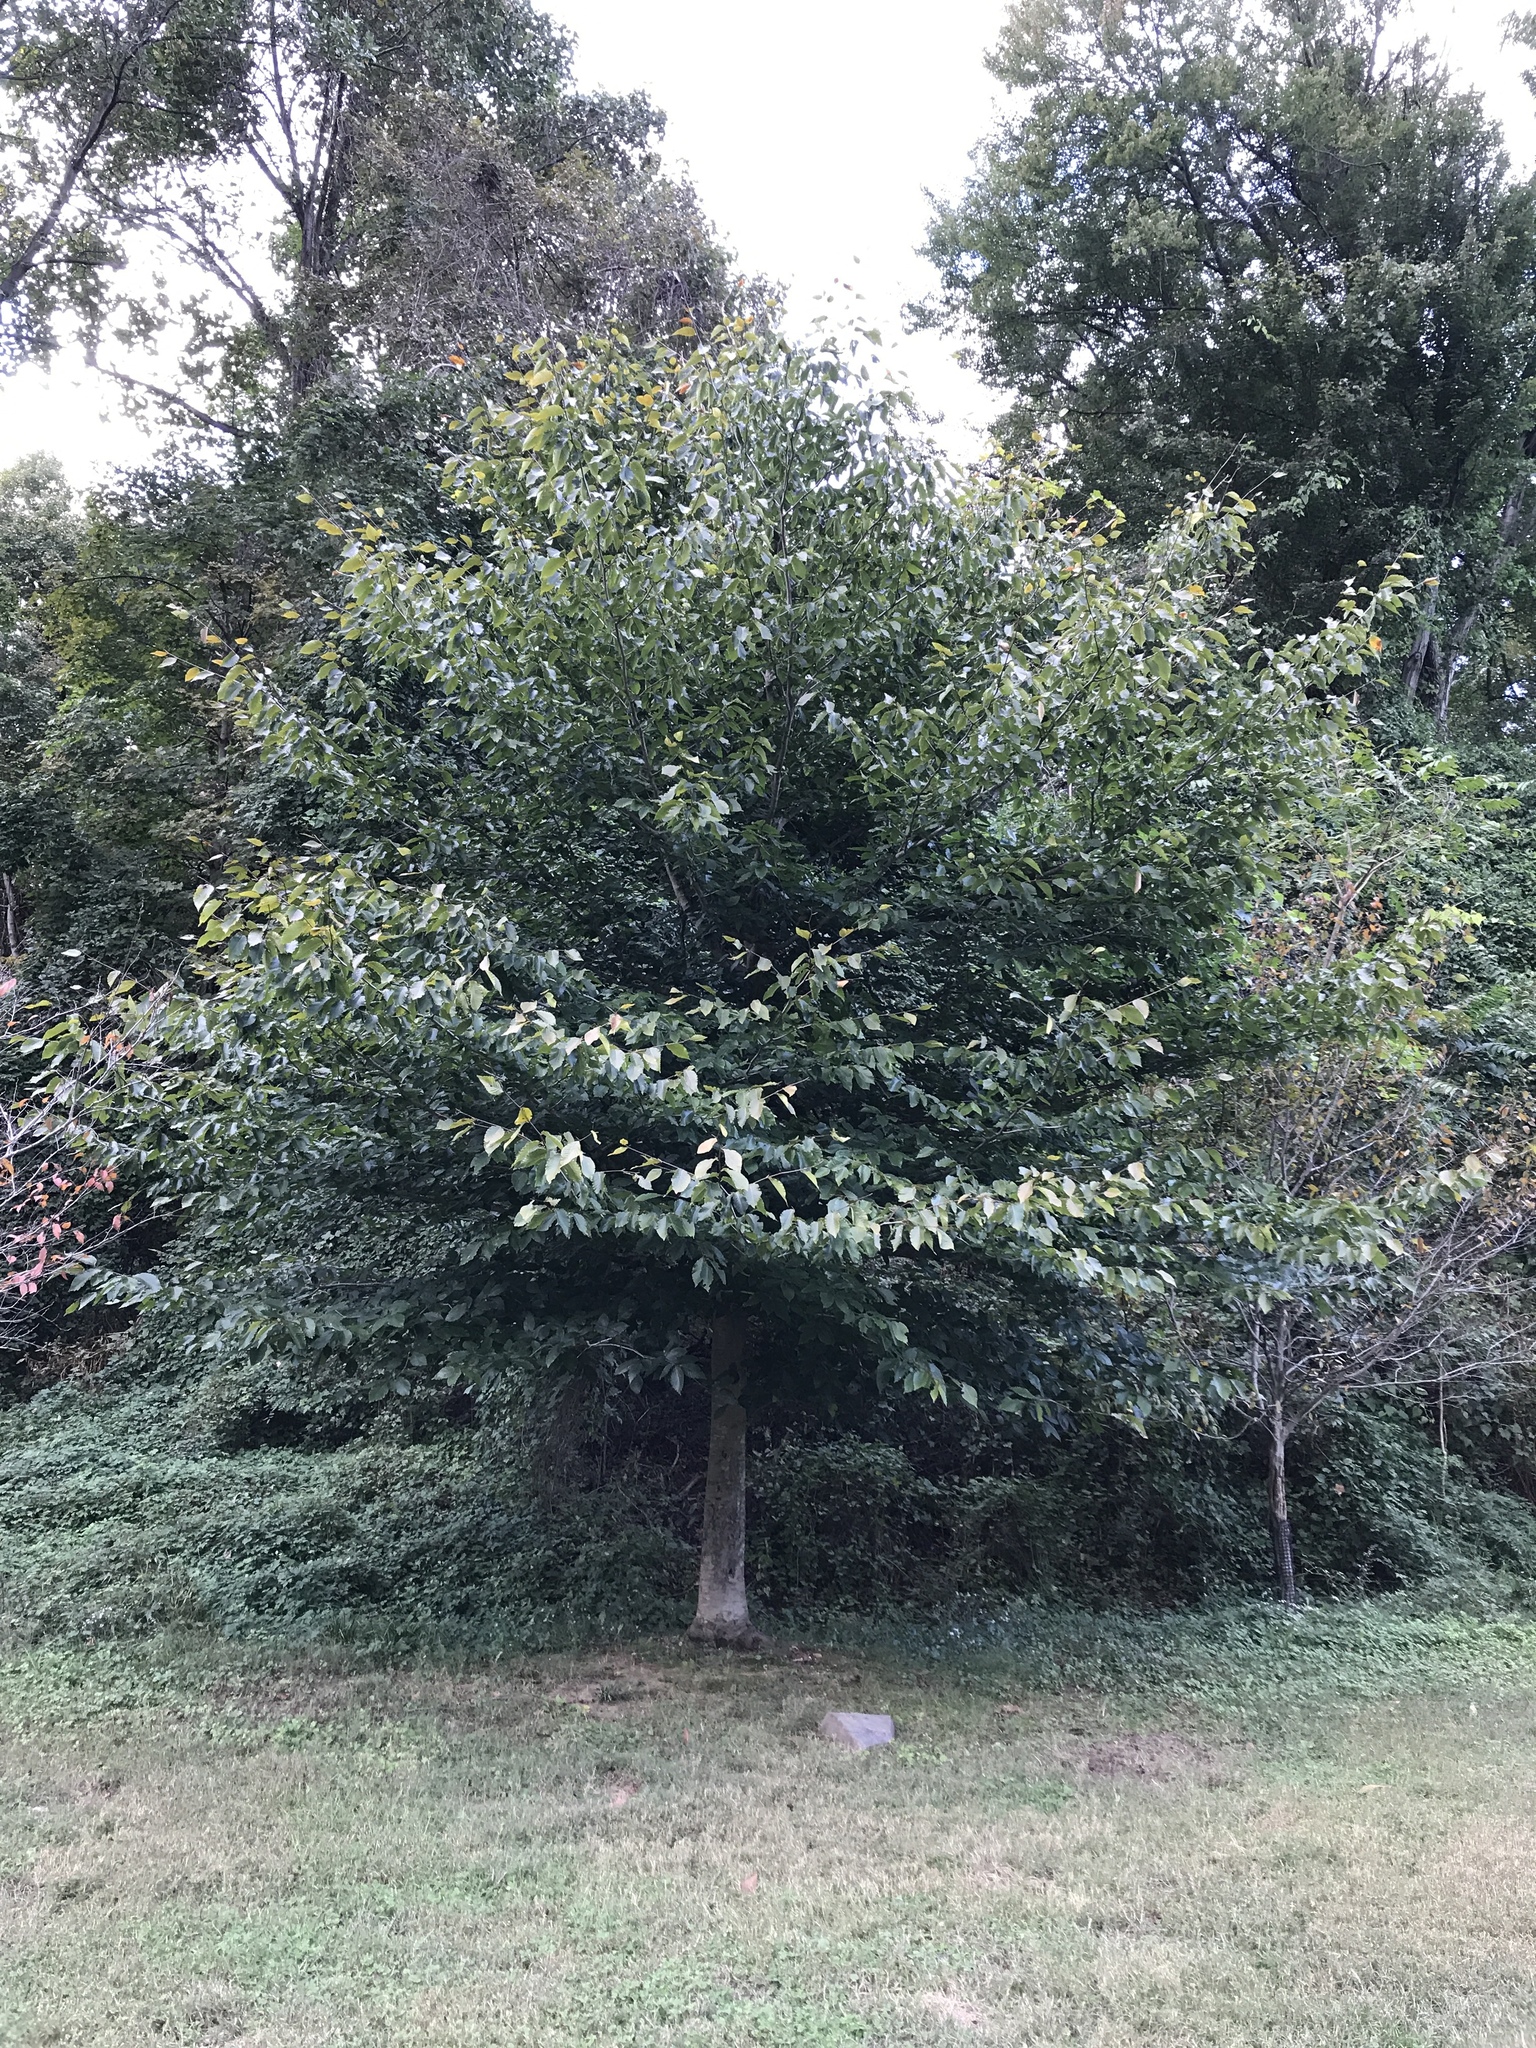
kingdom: Plantae
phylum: Tracheophyta
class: Magnoliopsida
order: Fagales
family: Fagaceae
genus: Fagus
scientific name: Fagus grandifolia
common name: American beech
